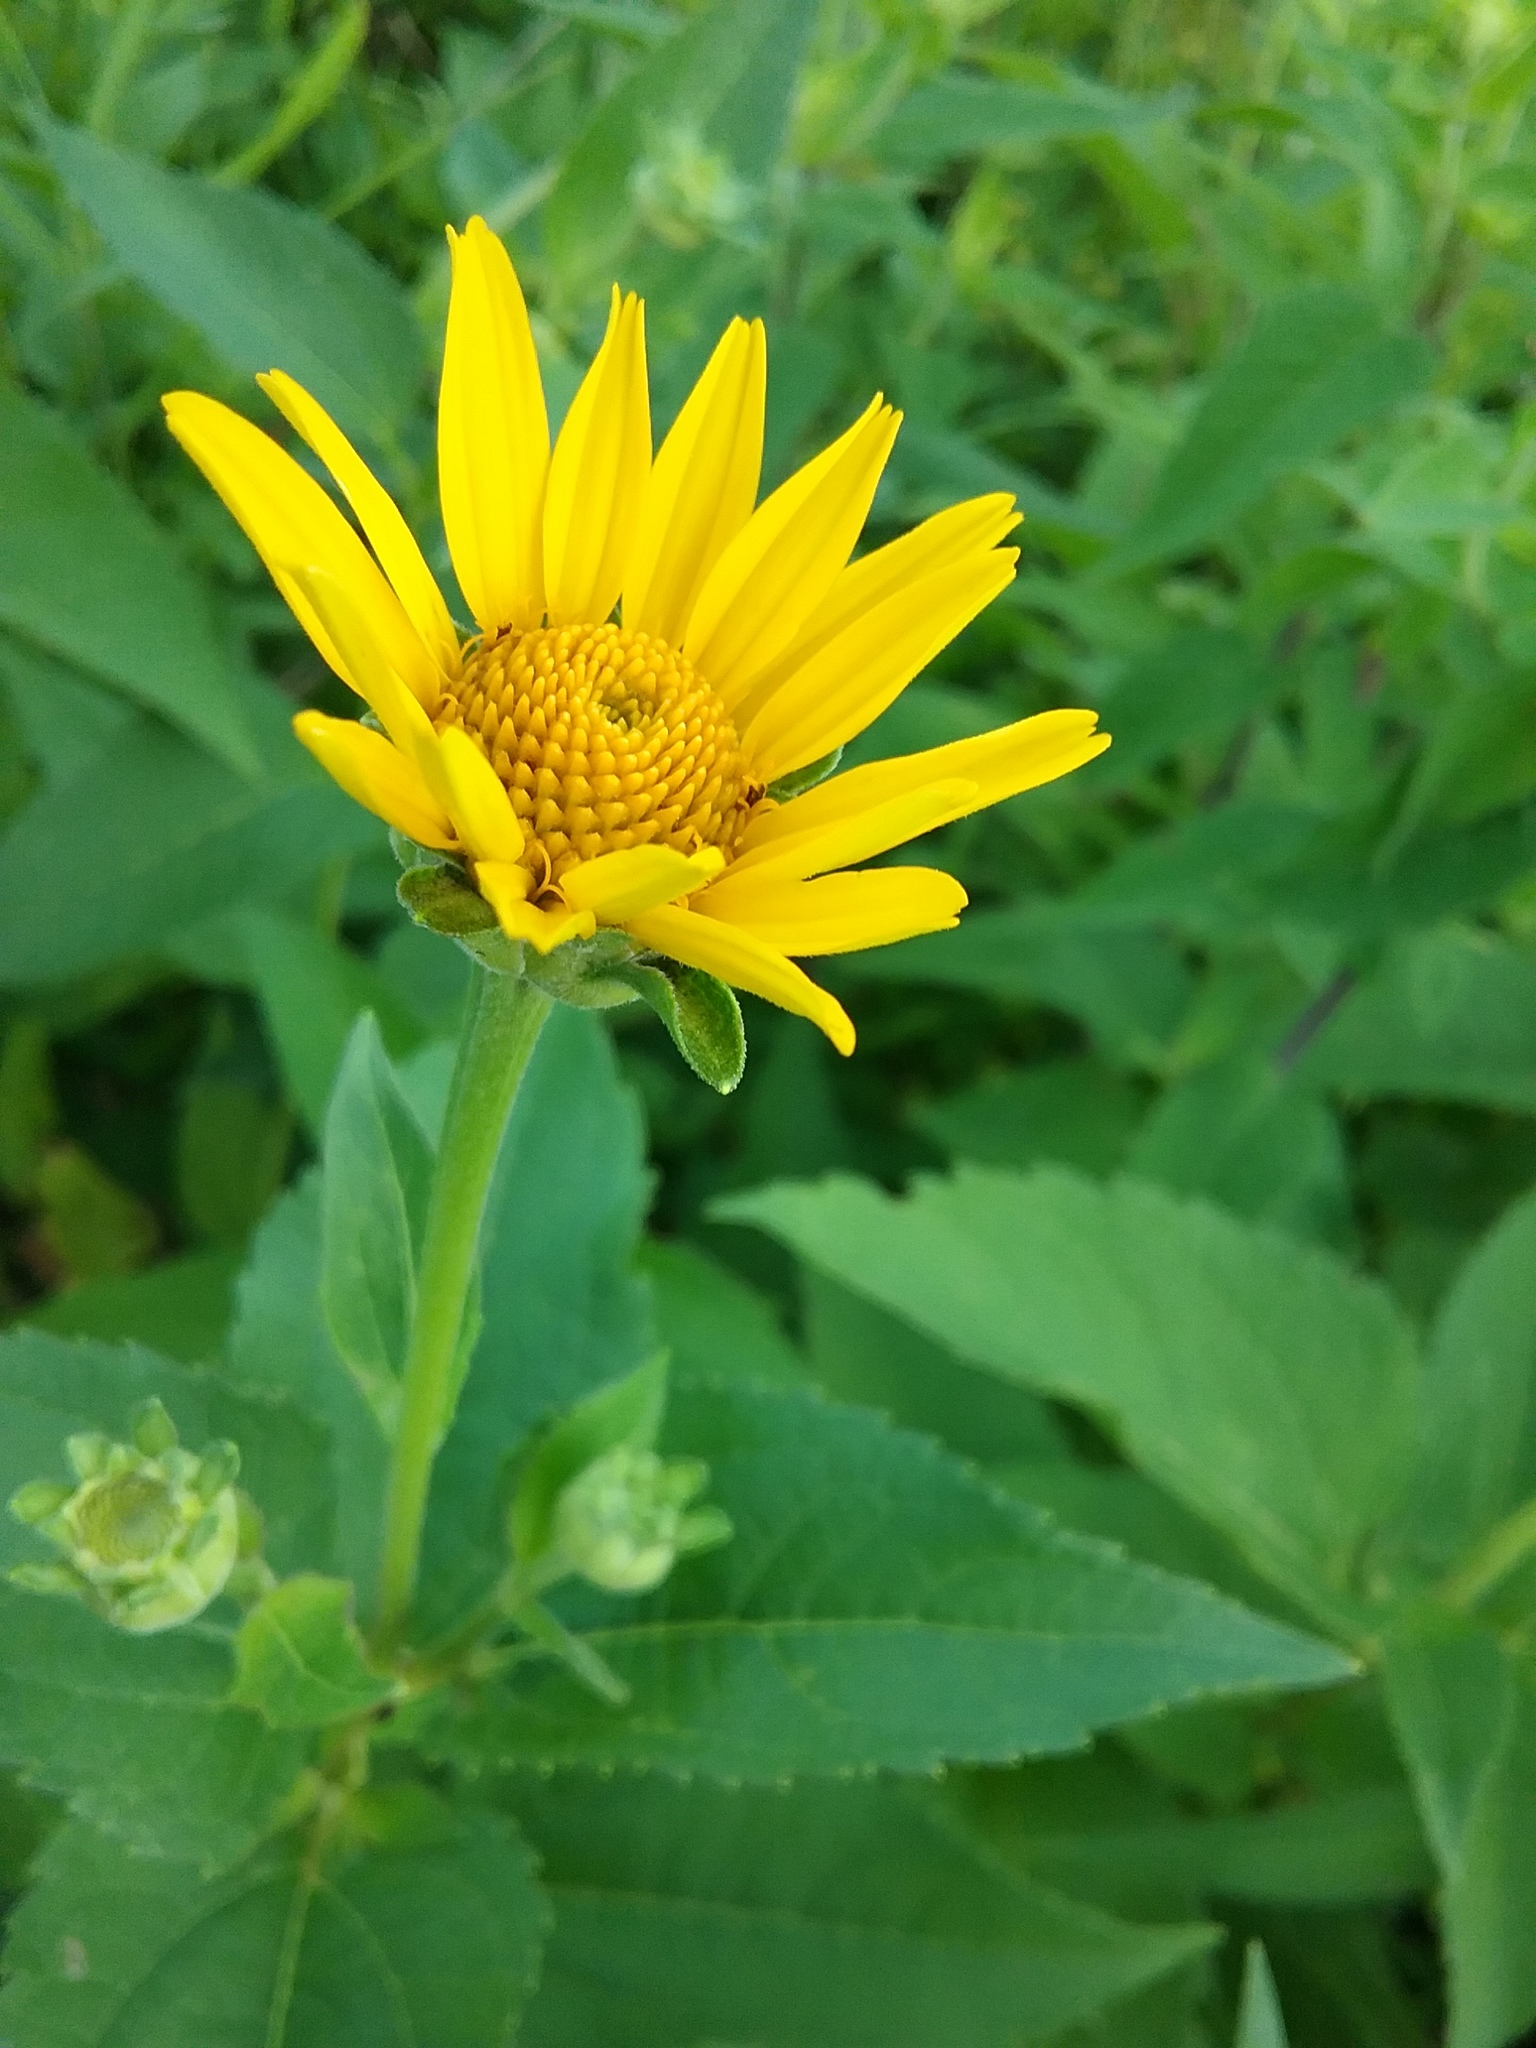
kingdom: Plantae
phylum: Tracheophyta
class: Magnoliopsida
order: Asterales
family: Asteraceae
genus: Heliopsis
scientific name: Heliopsis helianthoides
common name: False sunflower
